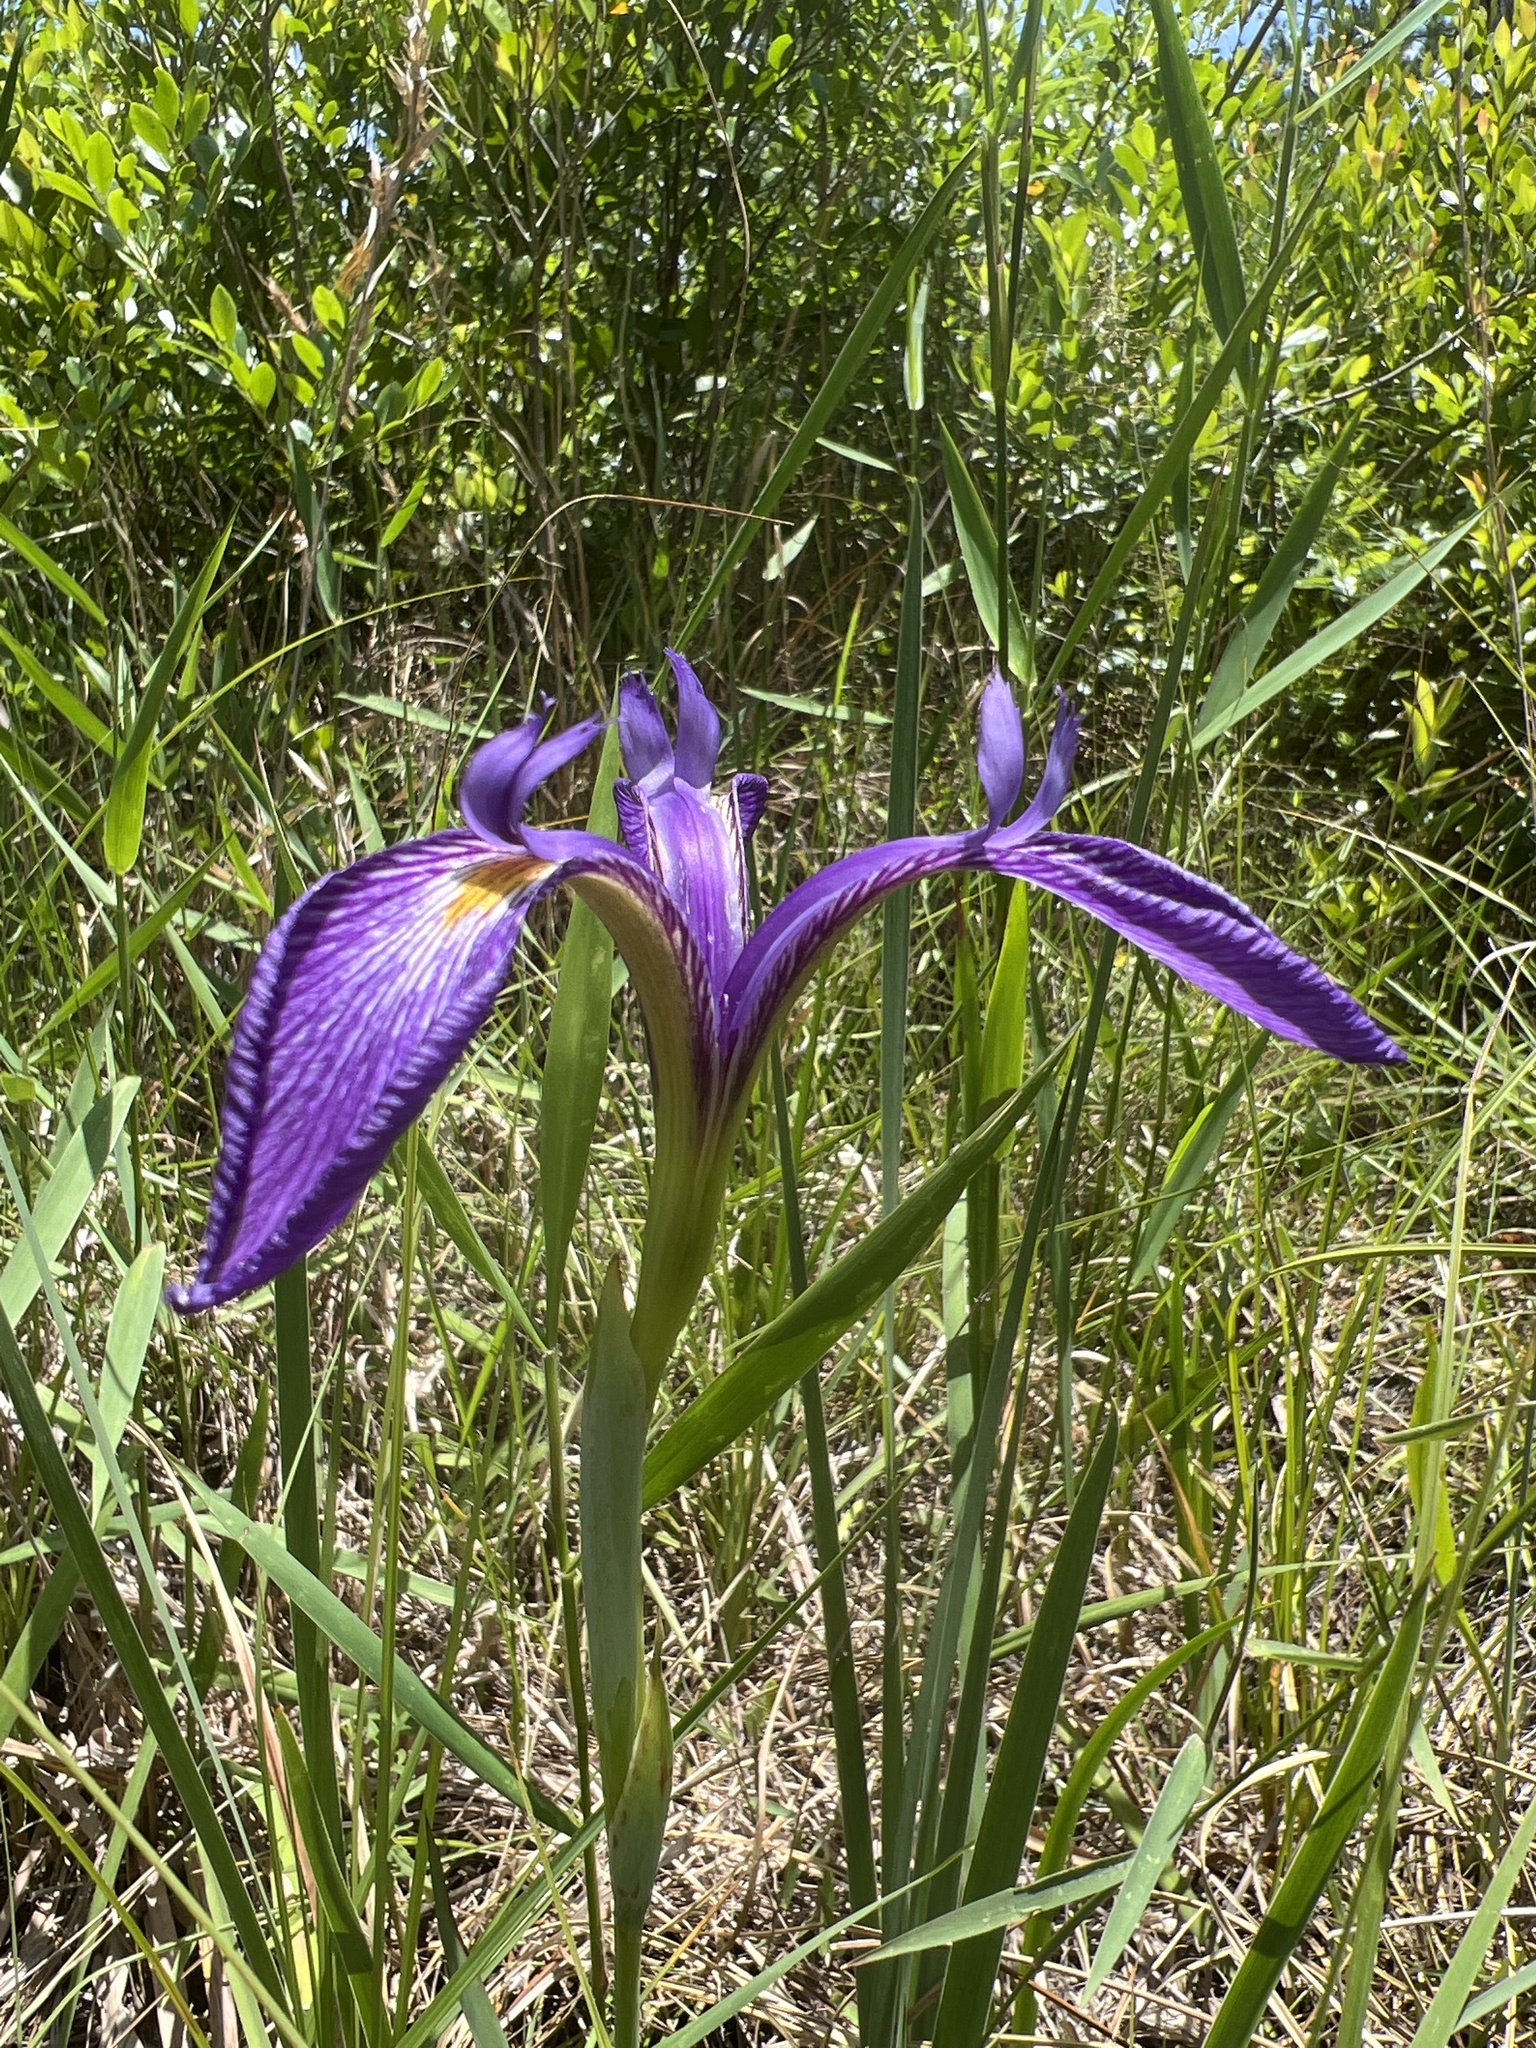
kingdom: Plantae
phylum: Tracheophyta
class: Liliopsida
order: Asparagales
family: Iridaceae
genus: Iris
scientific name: Iris tridentata
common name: Savannah iris
